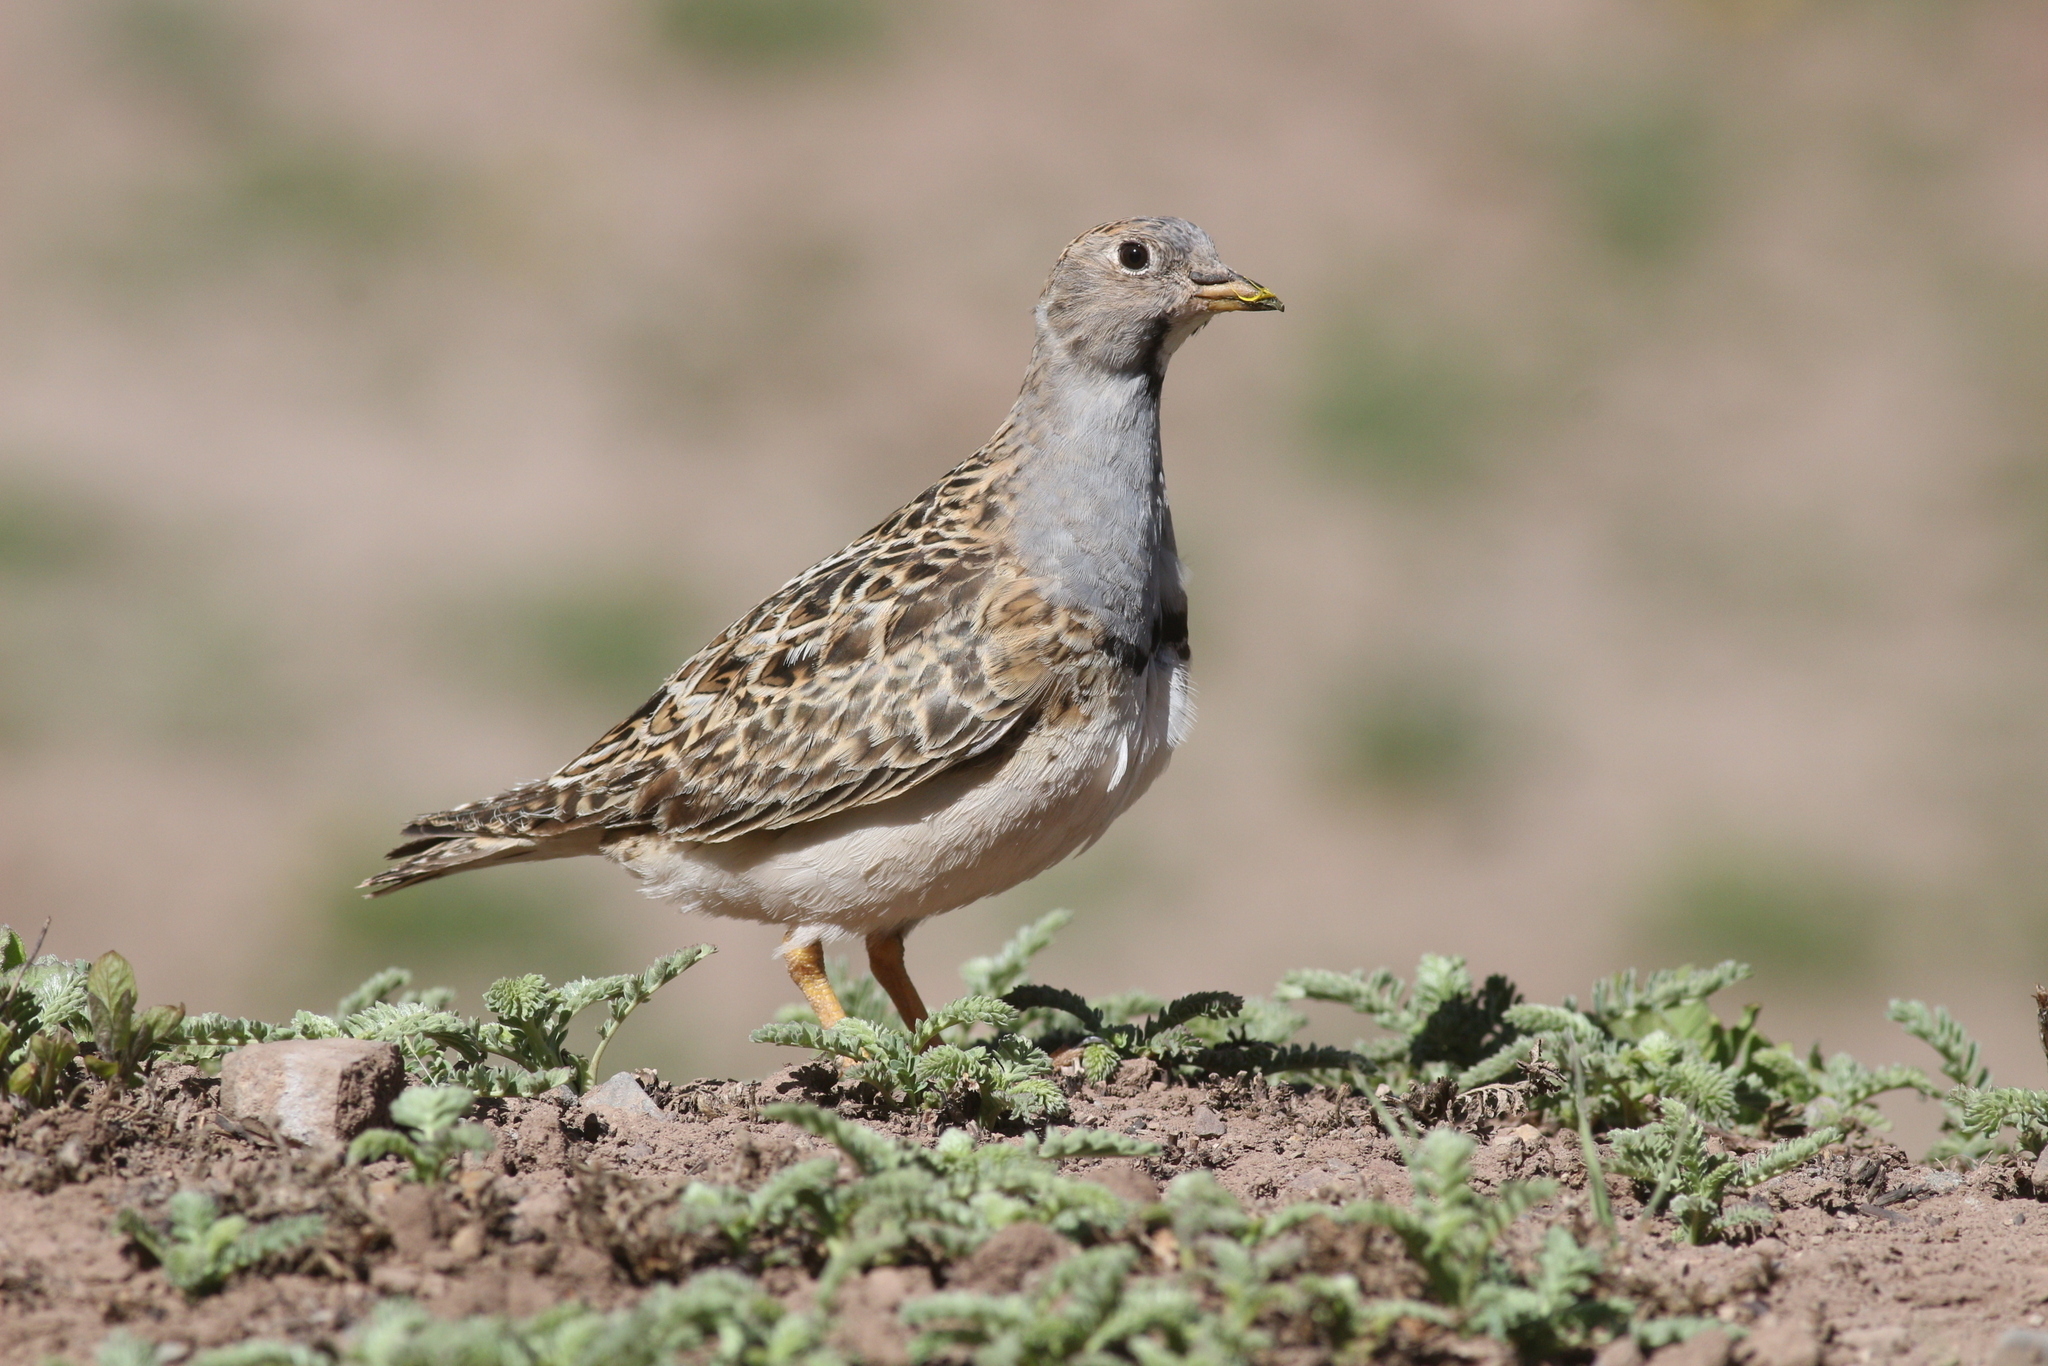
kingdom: Animalia
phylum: Chordata
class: Aves
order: Charadriiformes
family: Thinocoridae
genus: Thinocorus
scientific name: Thinocorus orbignyianus
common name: Grey-breasted seedsnipe
